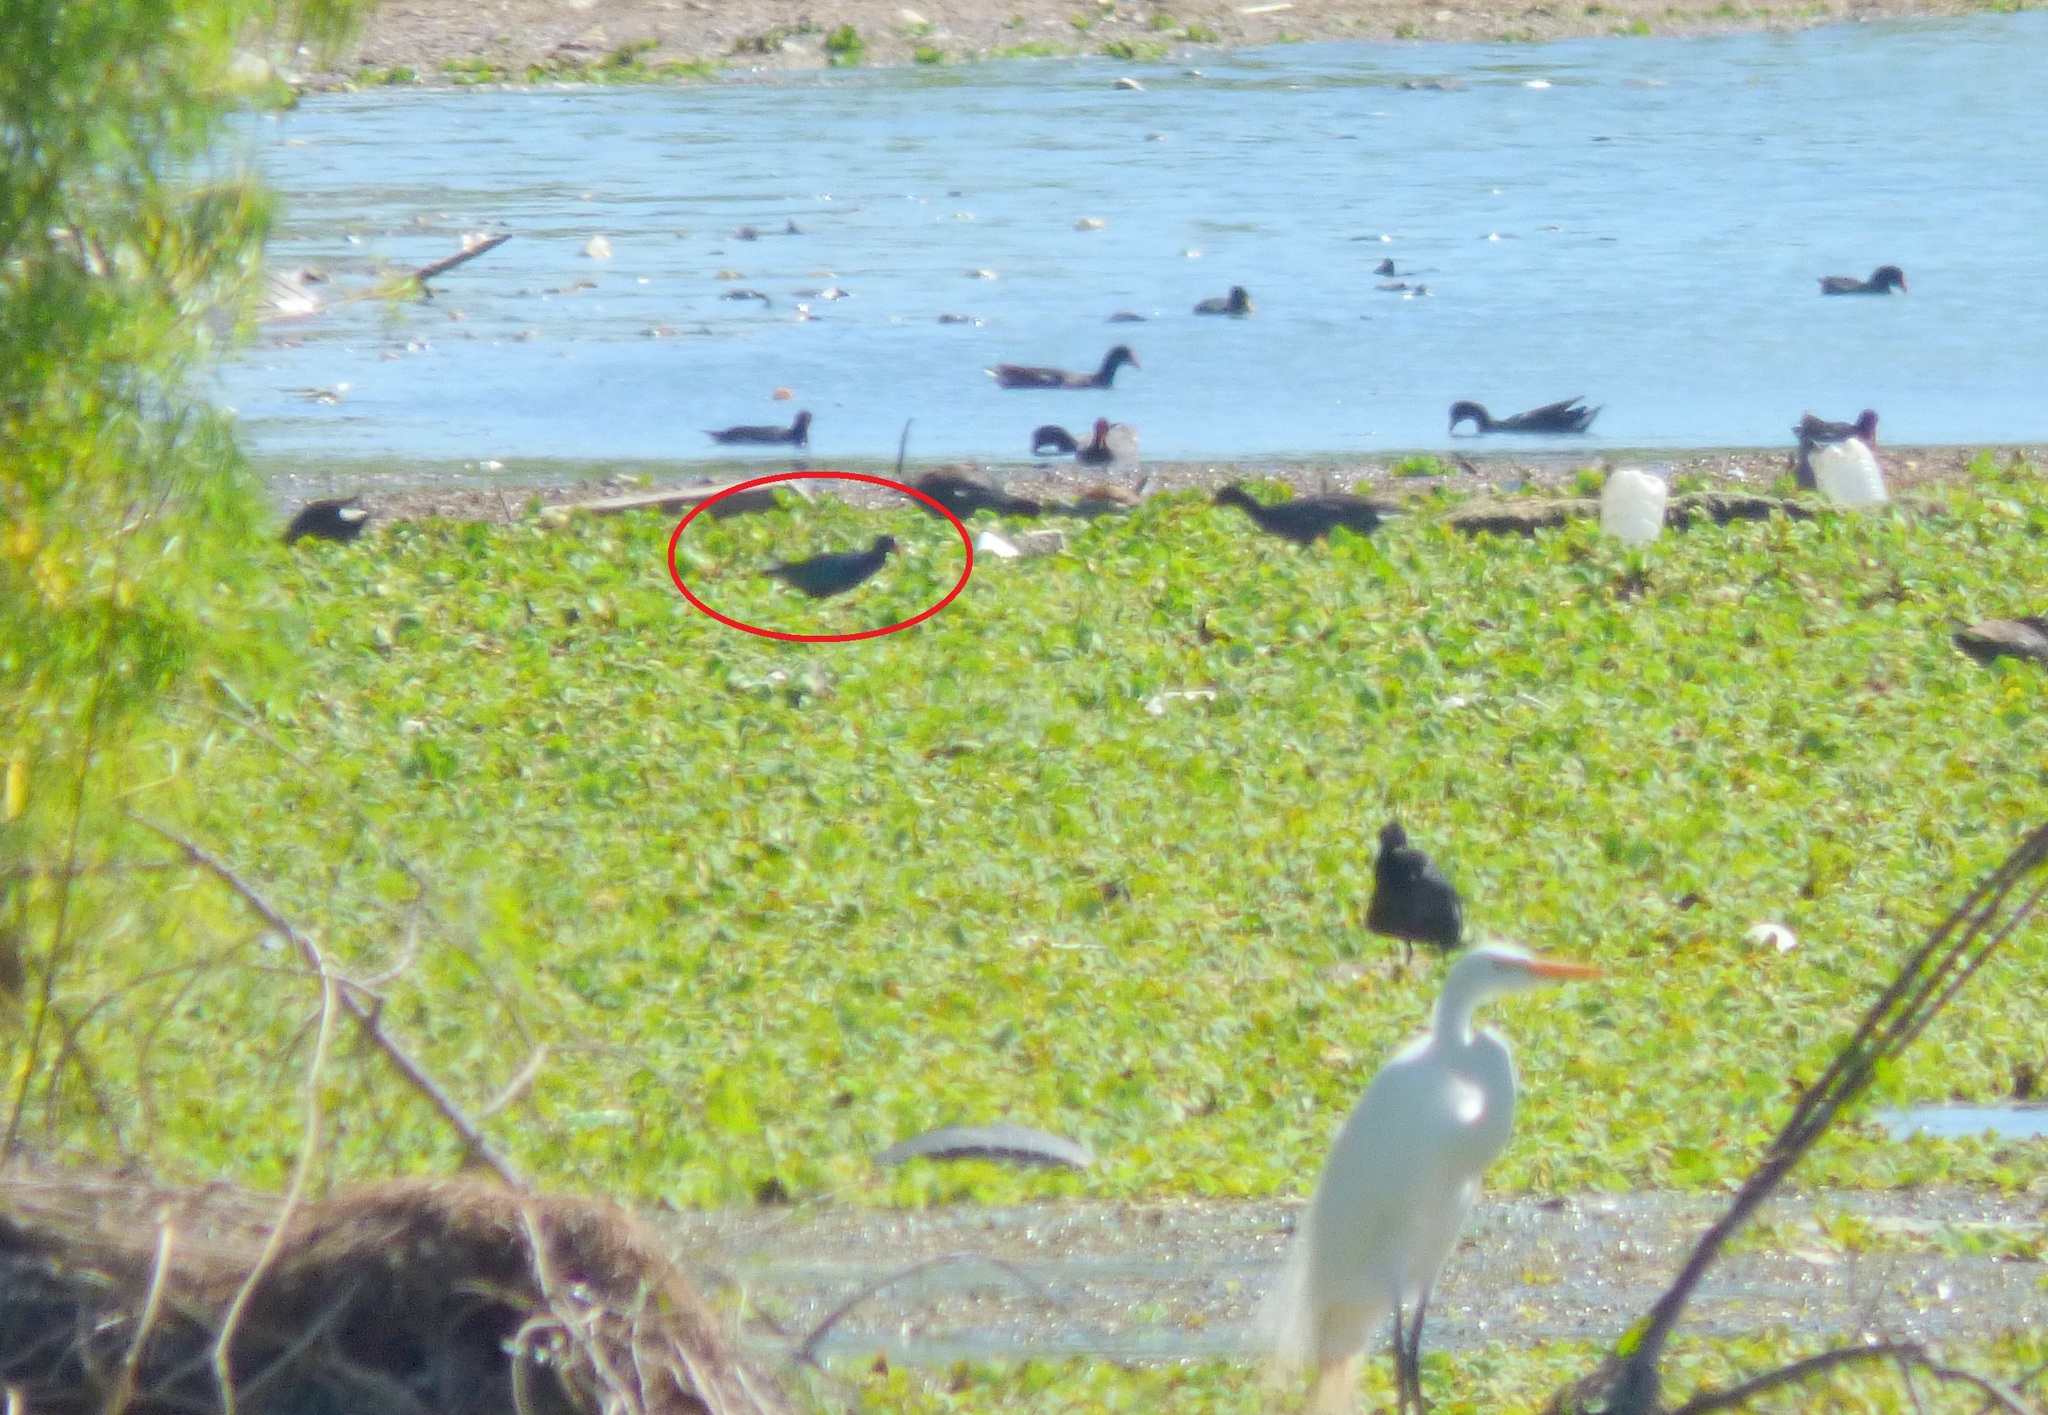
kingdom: Animalia
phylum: Chordata
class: Aves
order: Gruiformes
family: Rallidae
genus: Porphyrio
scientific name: Porphyrio martinica
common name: Purple gallinule
